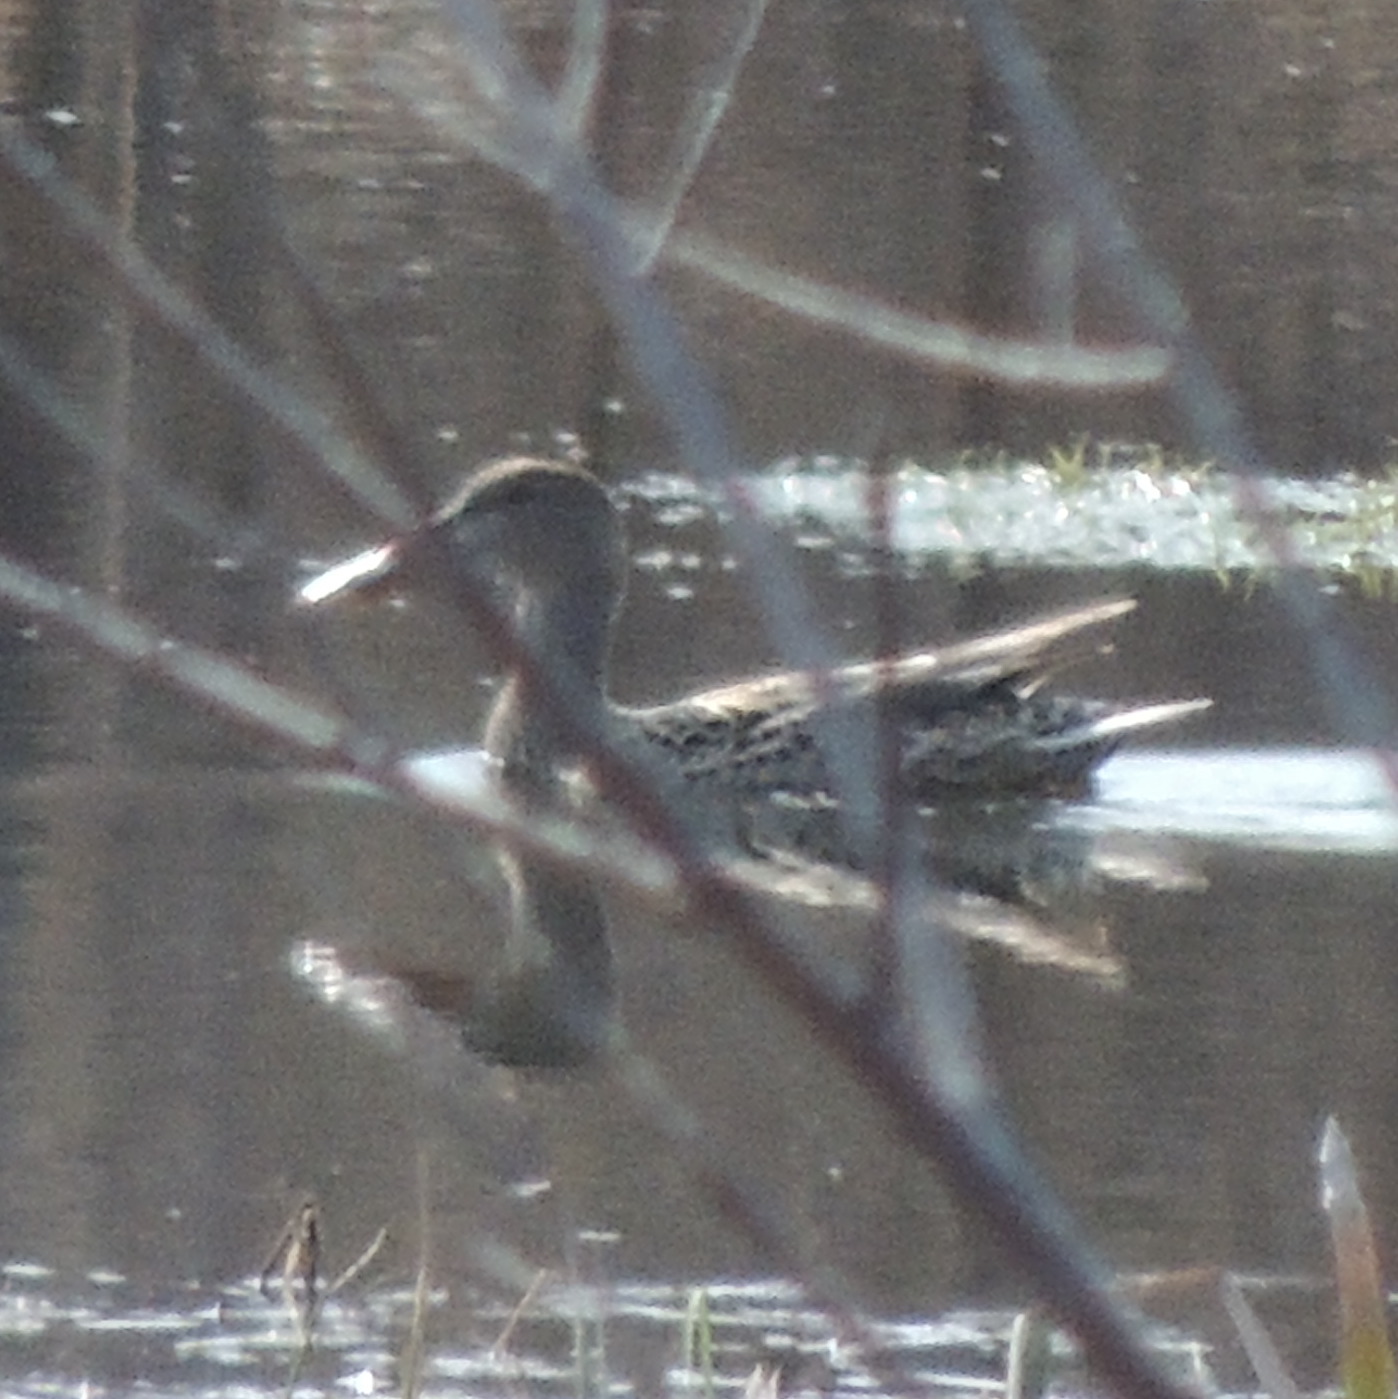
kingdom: Animalia
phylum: Chordata
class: Aves
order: Anseriformes
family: Anatidae
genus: Spatula
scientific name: Spatula clypeata
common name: Northern shoveler
